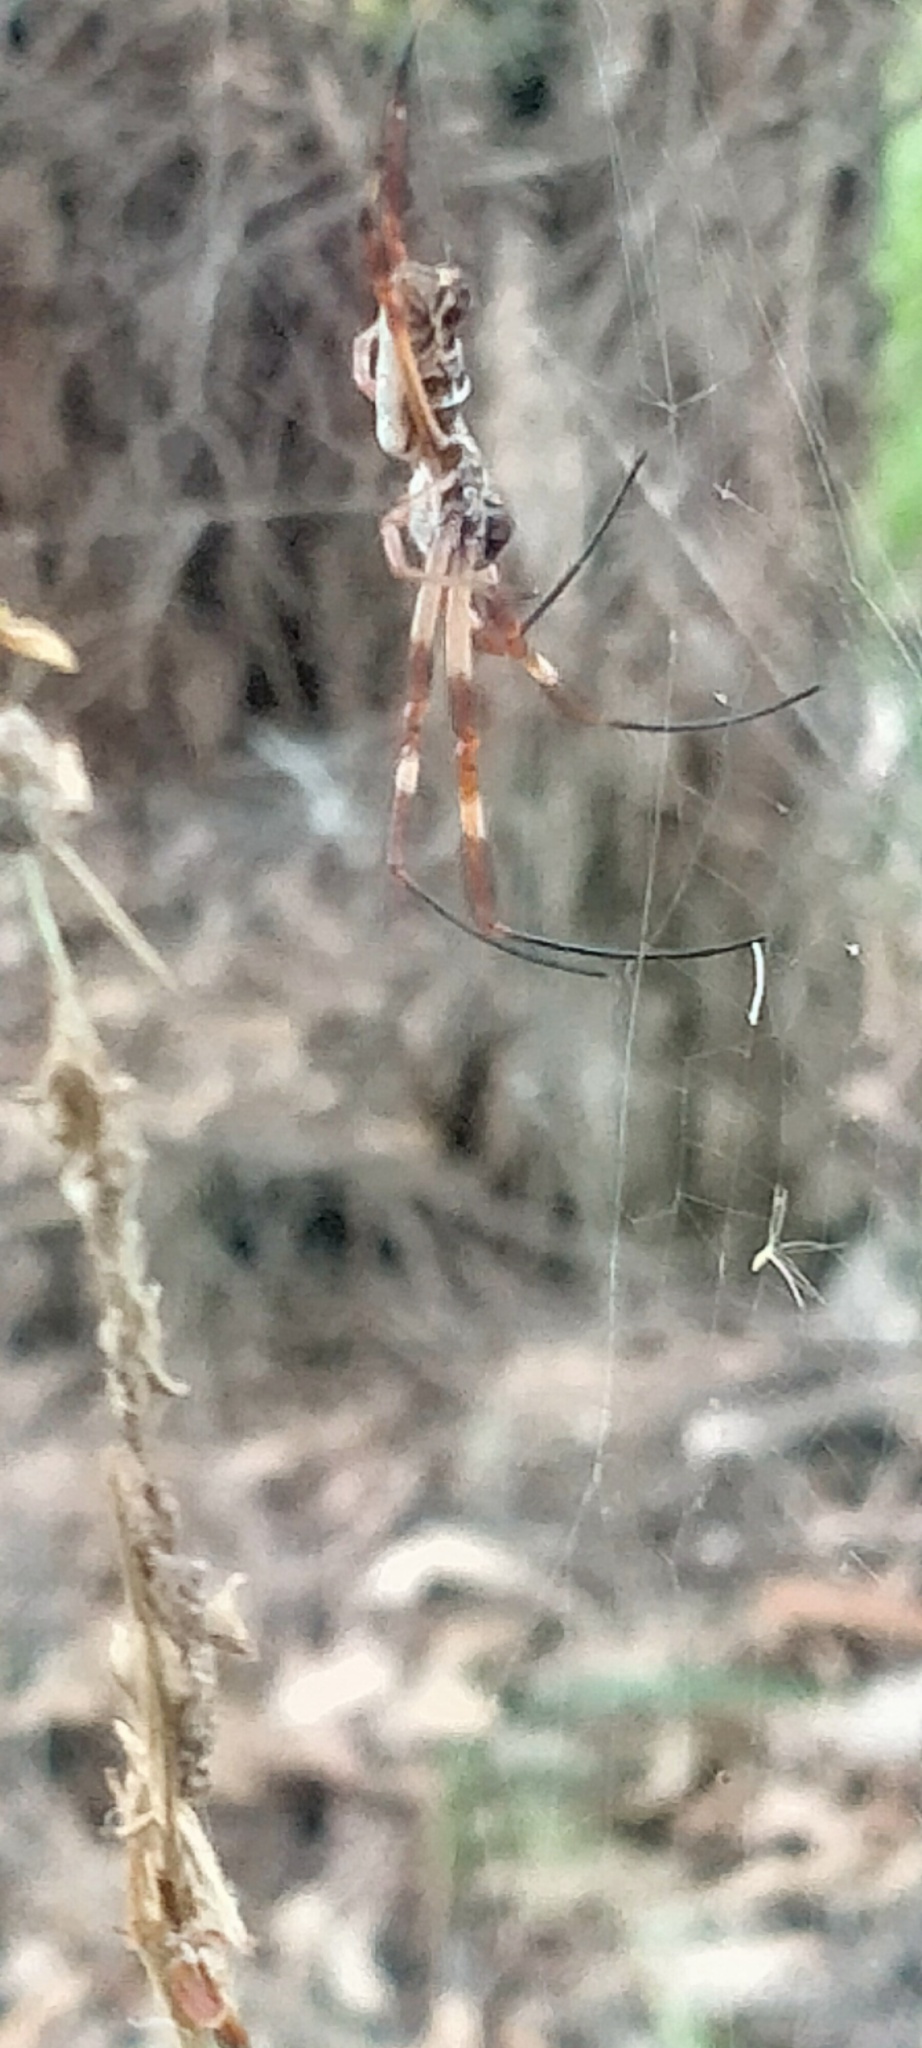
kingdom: Animalia
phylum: Arthropoda
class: Arachnida
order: Araneae
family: Araneidae
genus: Trichonephila
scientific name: Trichonephila edulis
